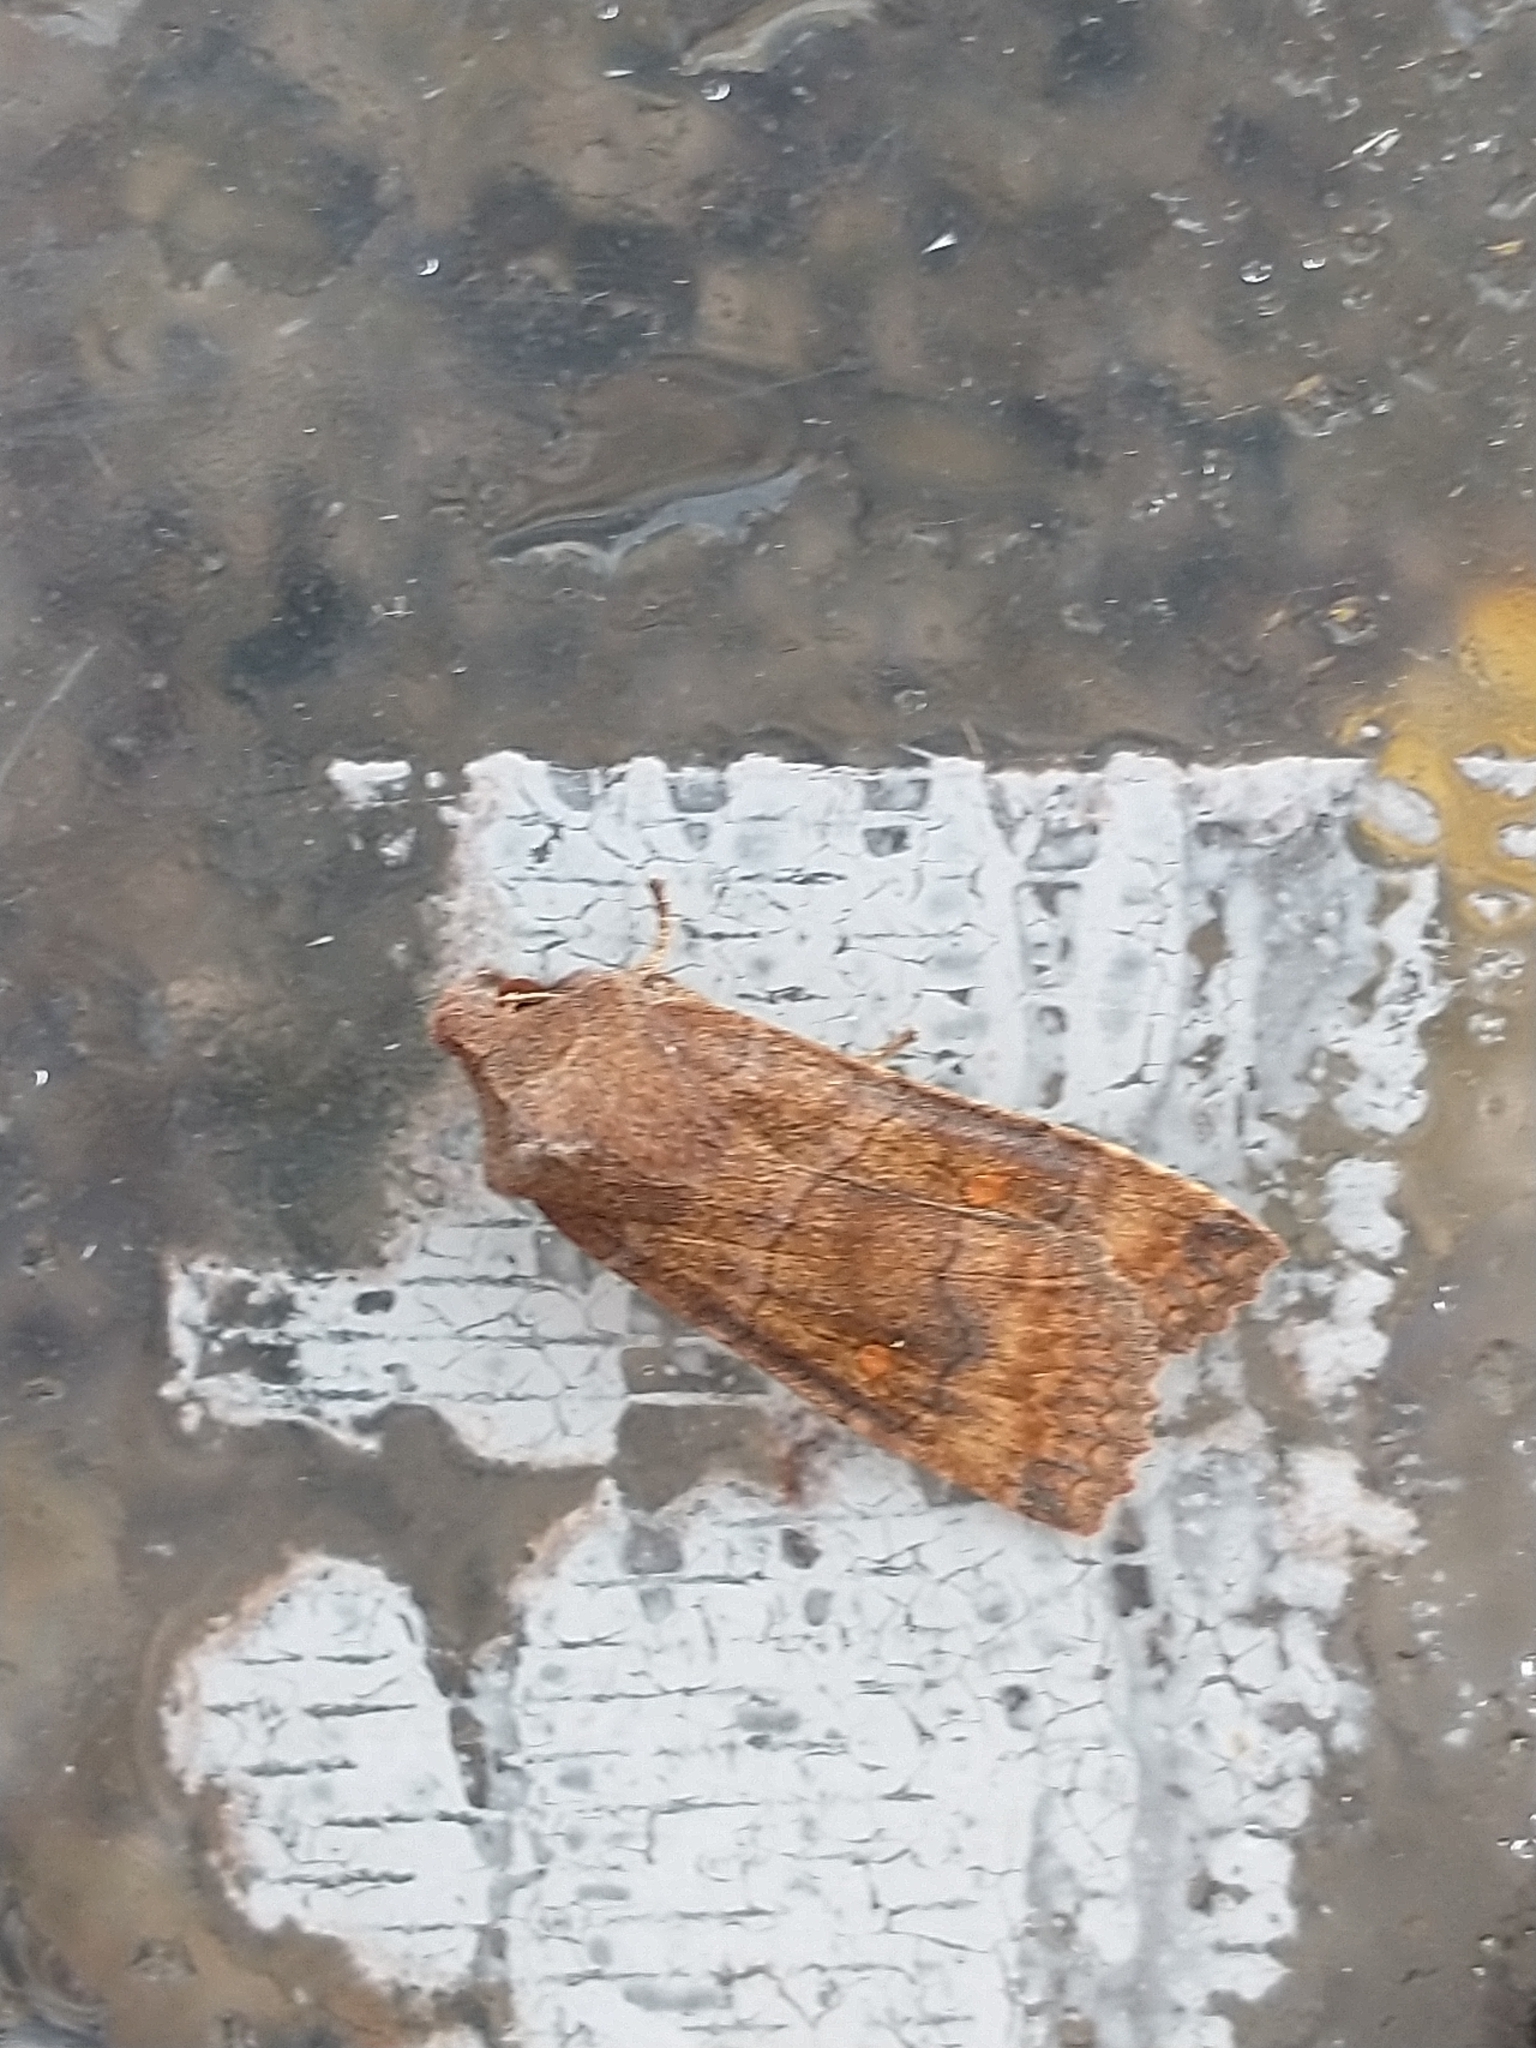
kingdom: Animalia
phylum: Arthropoda
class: Insecta
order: Lepidoptera
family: Noctuidae
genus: Eupsilia
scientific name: Eupsilia transversa
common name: Satellite
